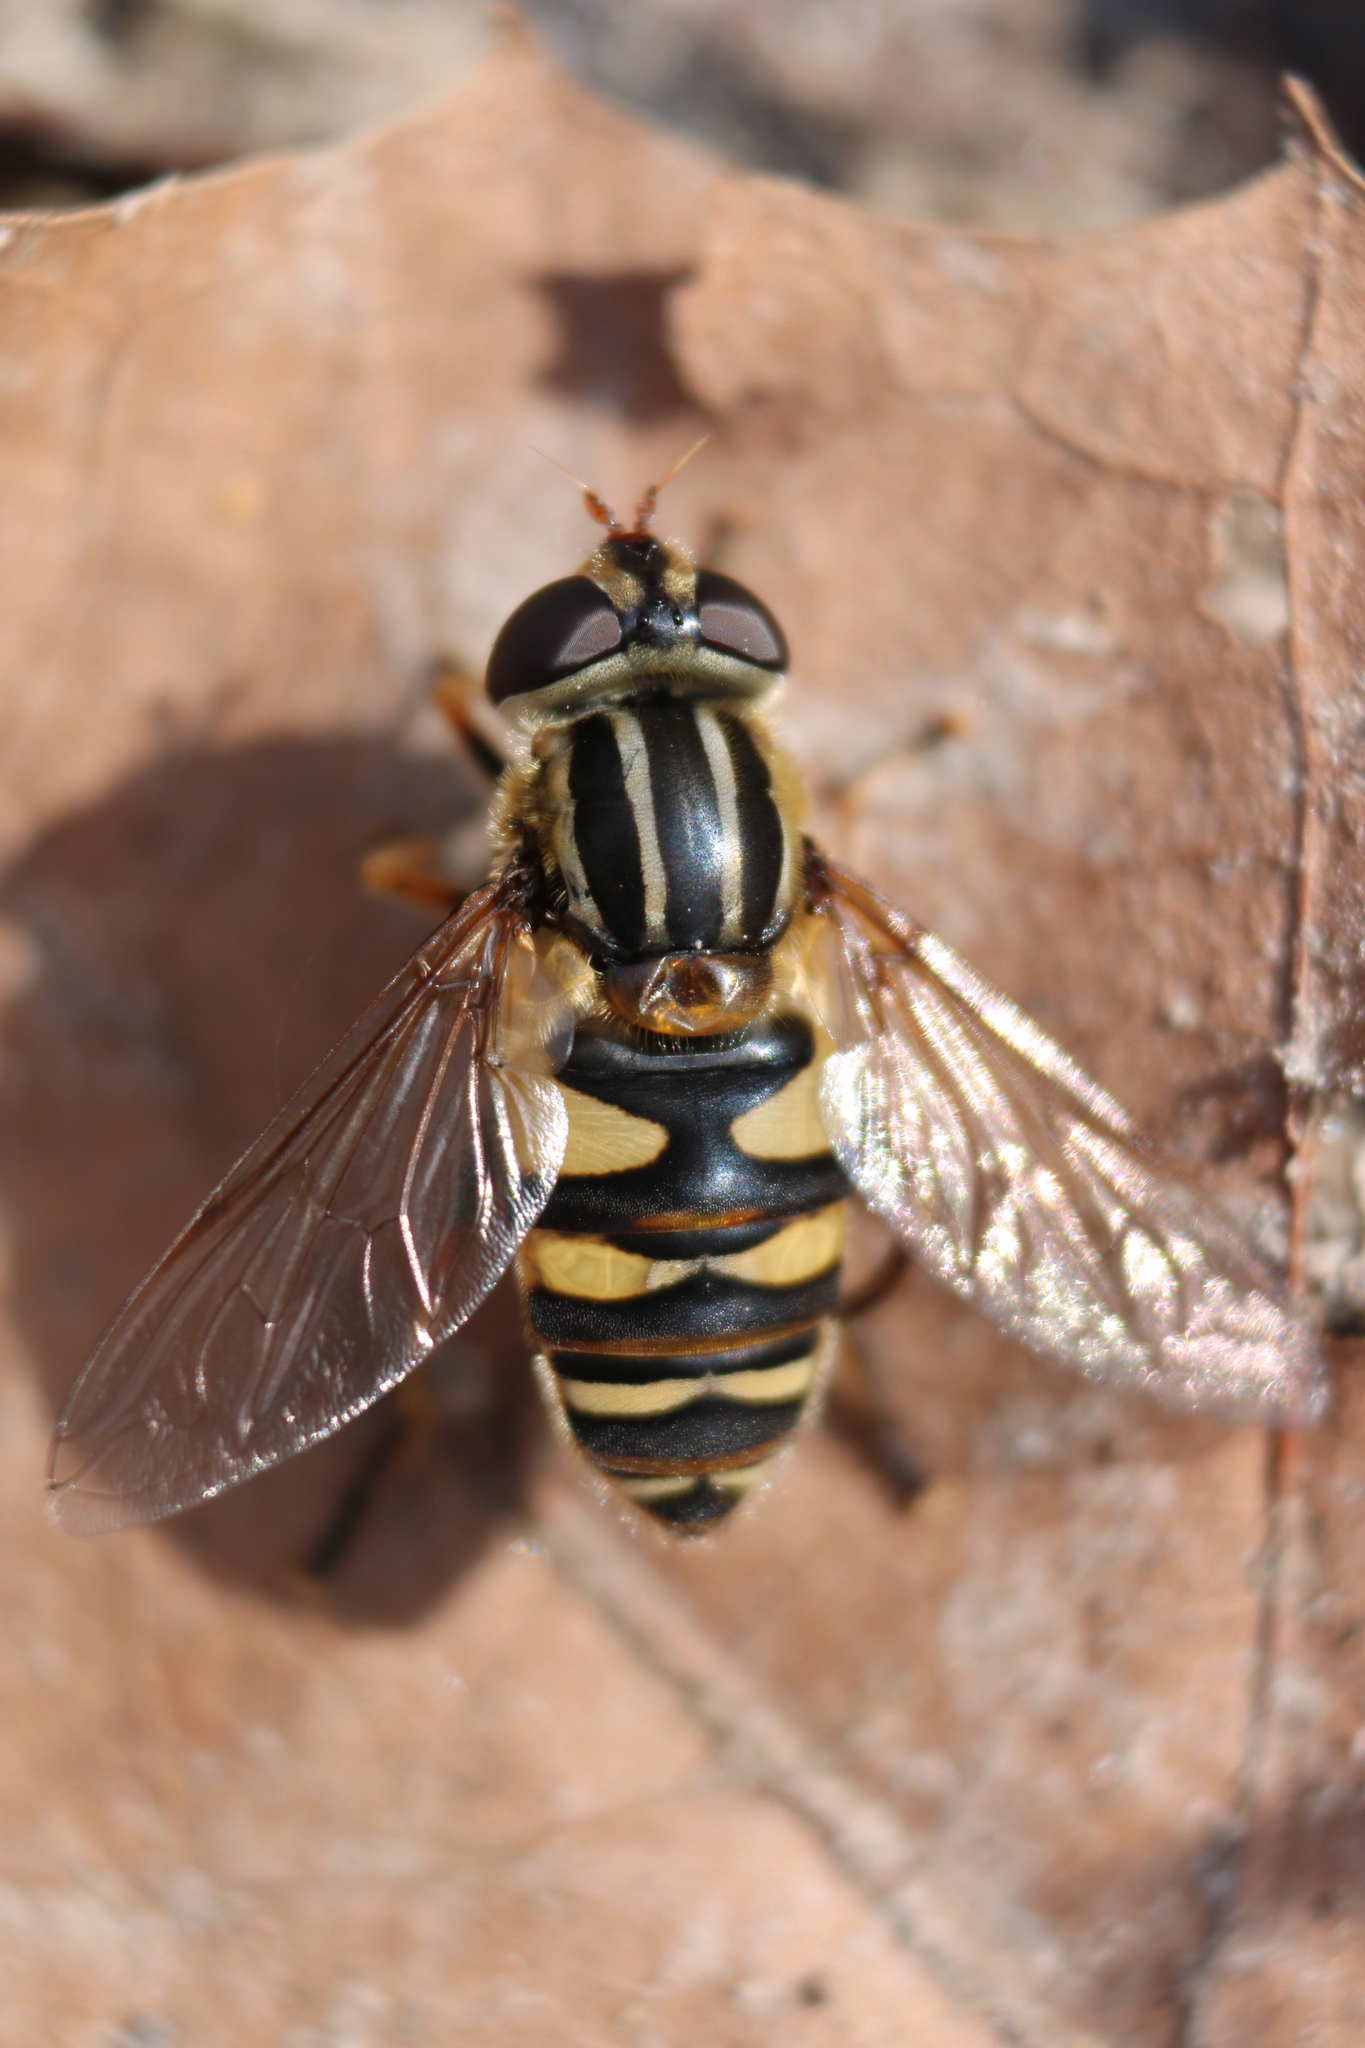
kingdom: Animalia
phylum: Arthropoda
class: Insecta
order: Diptera
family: Syrphidae
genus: Helophilus
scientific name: Helophilus fasciatus
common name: Narrow-headed marsh fly
